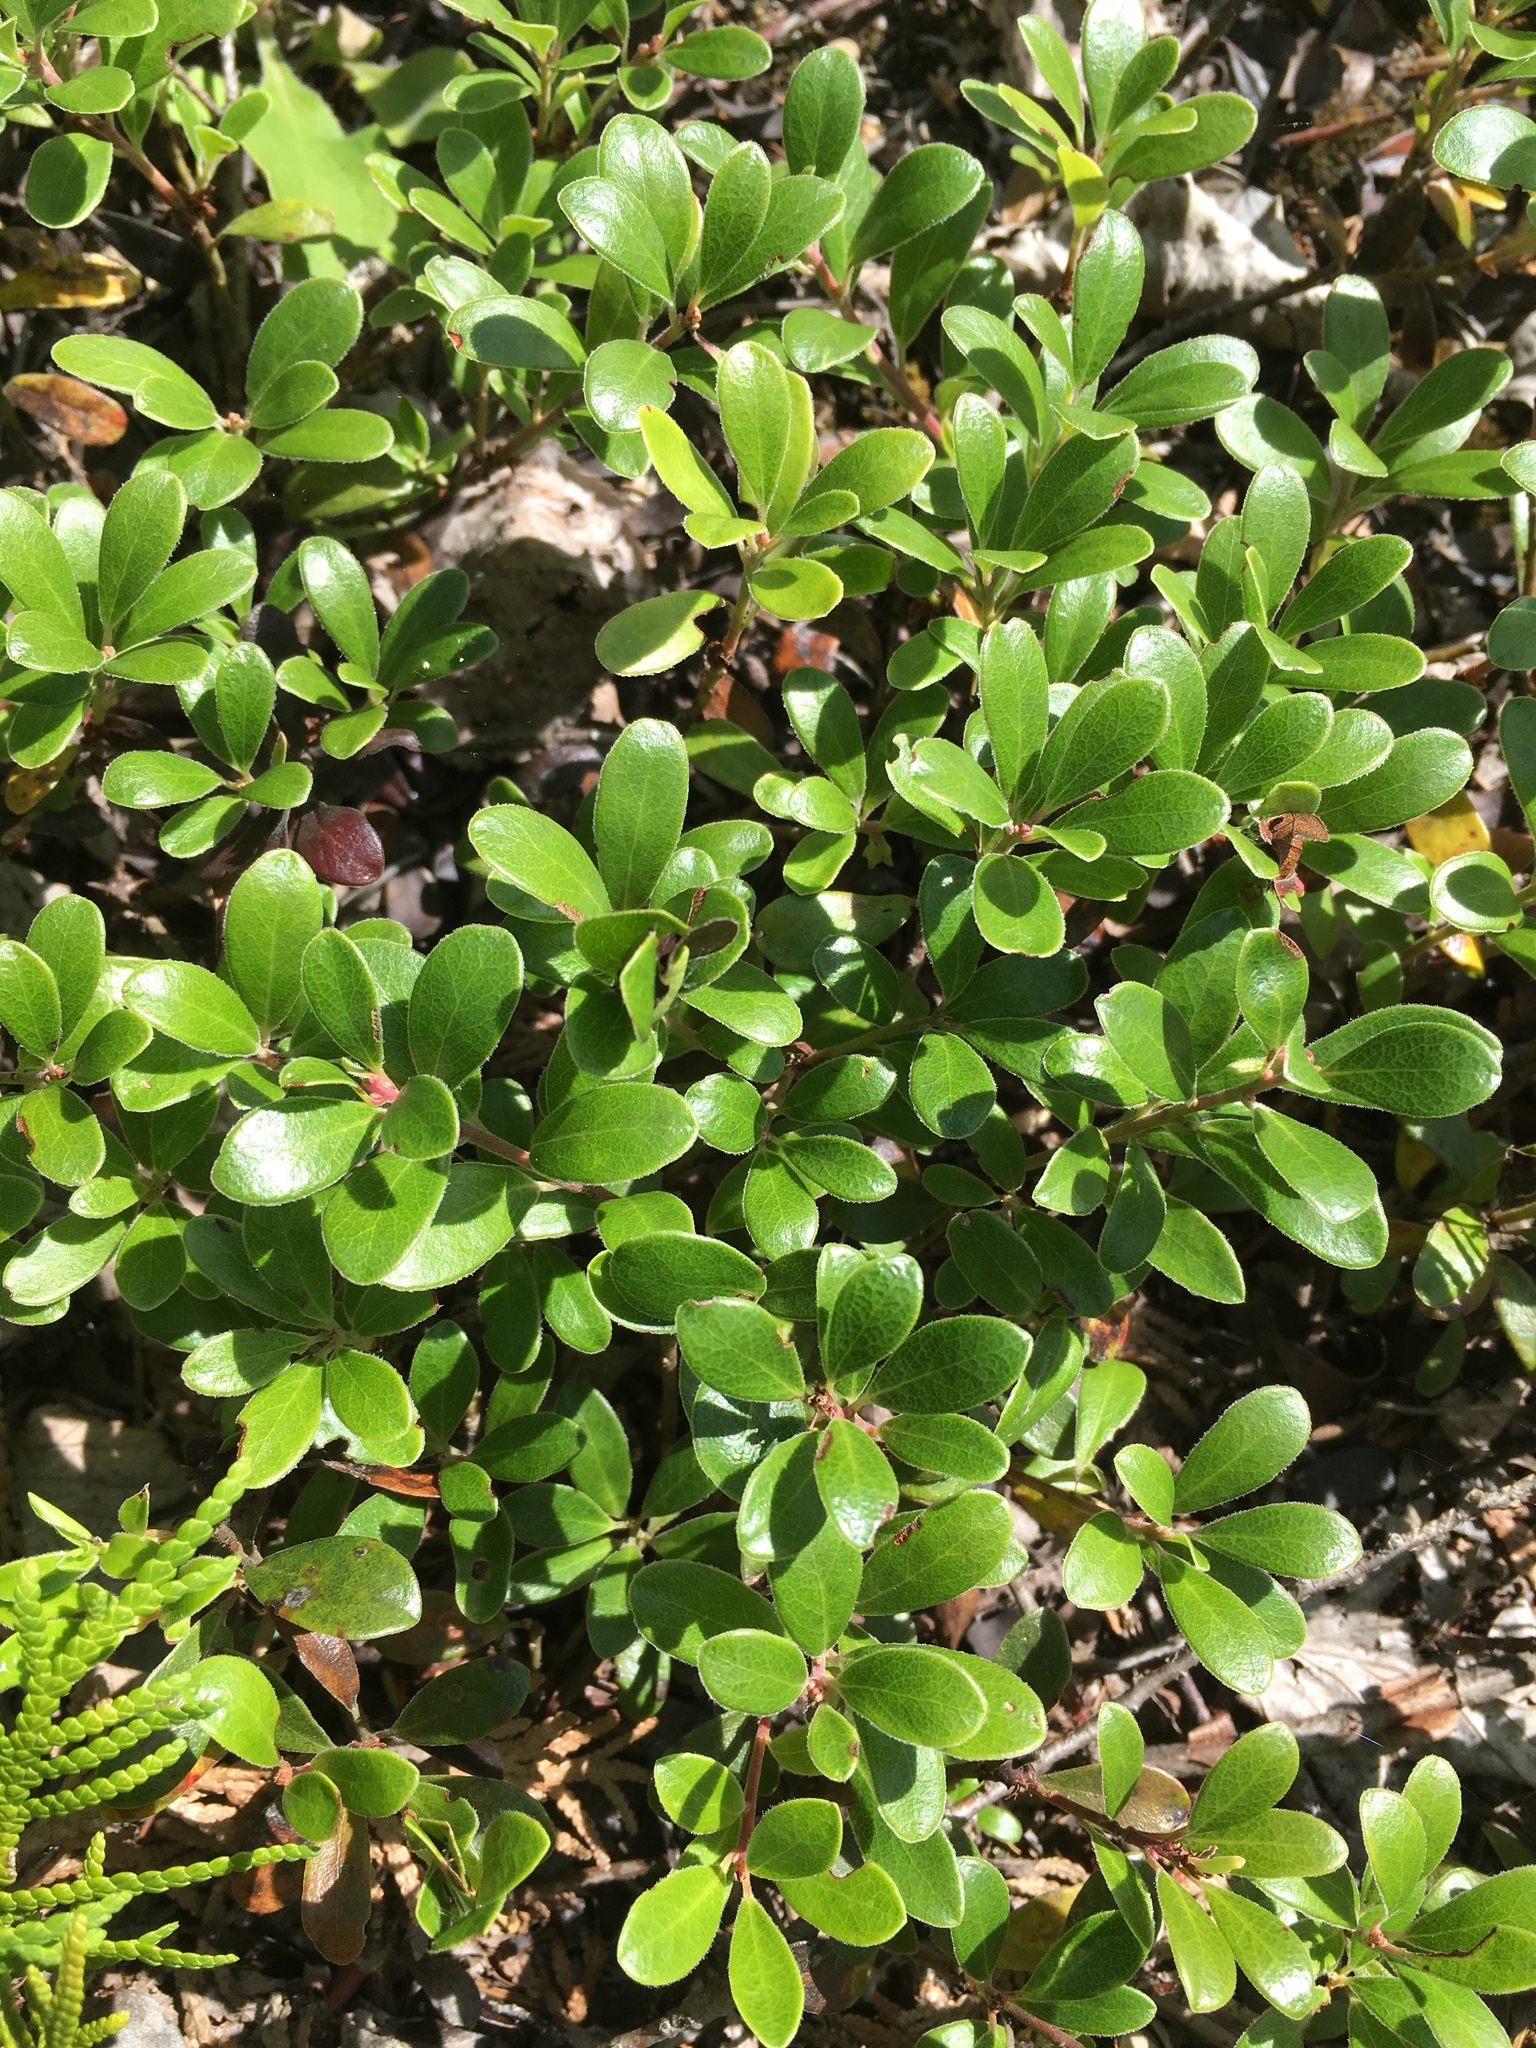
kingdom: Plantae
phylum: Tracheophyta
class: Magnoliopsida
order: Ericales
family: Ericaceae
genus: Arctostaphylos
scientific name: Arctostaphylos uva-ursi
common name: Bearberry
